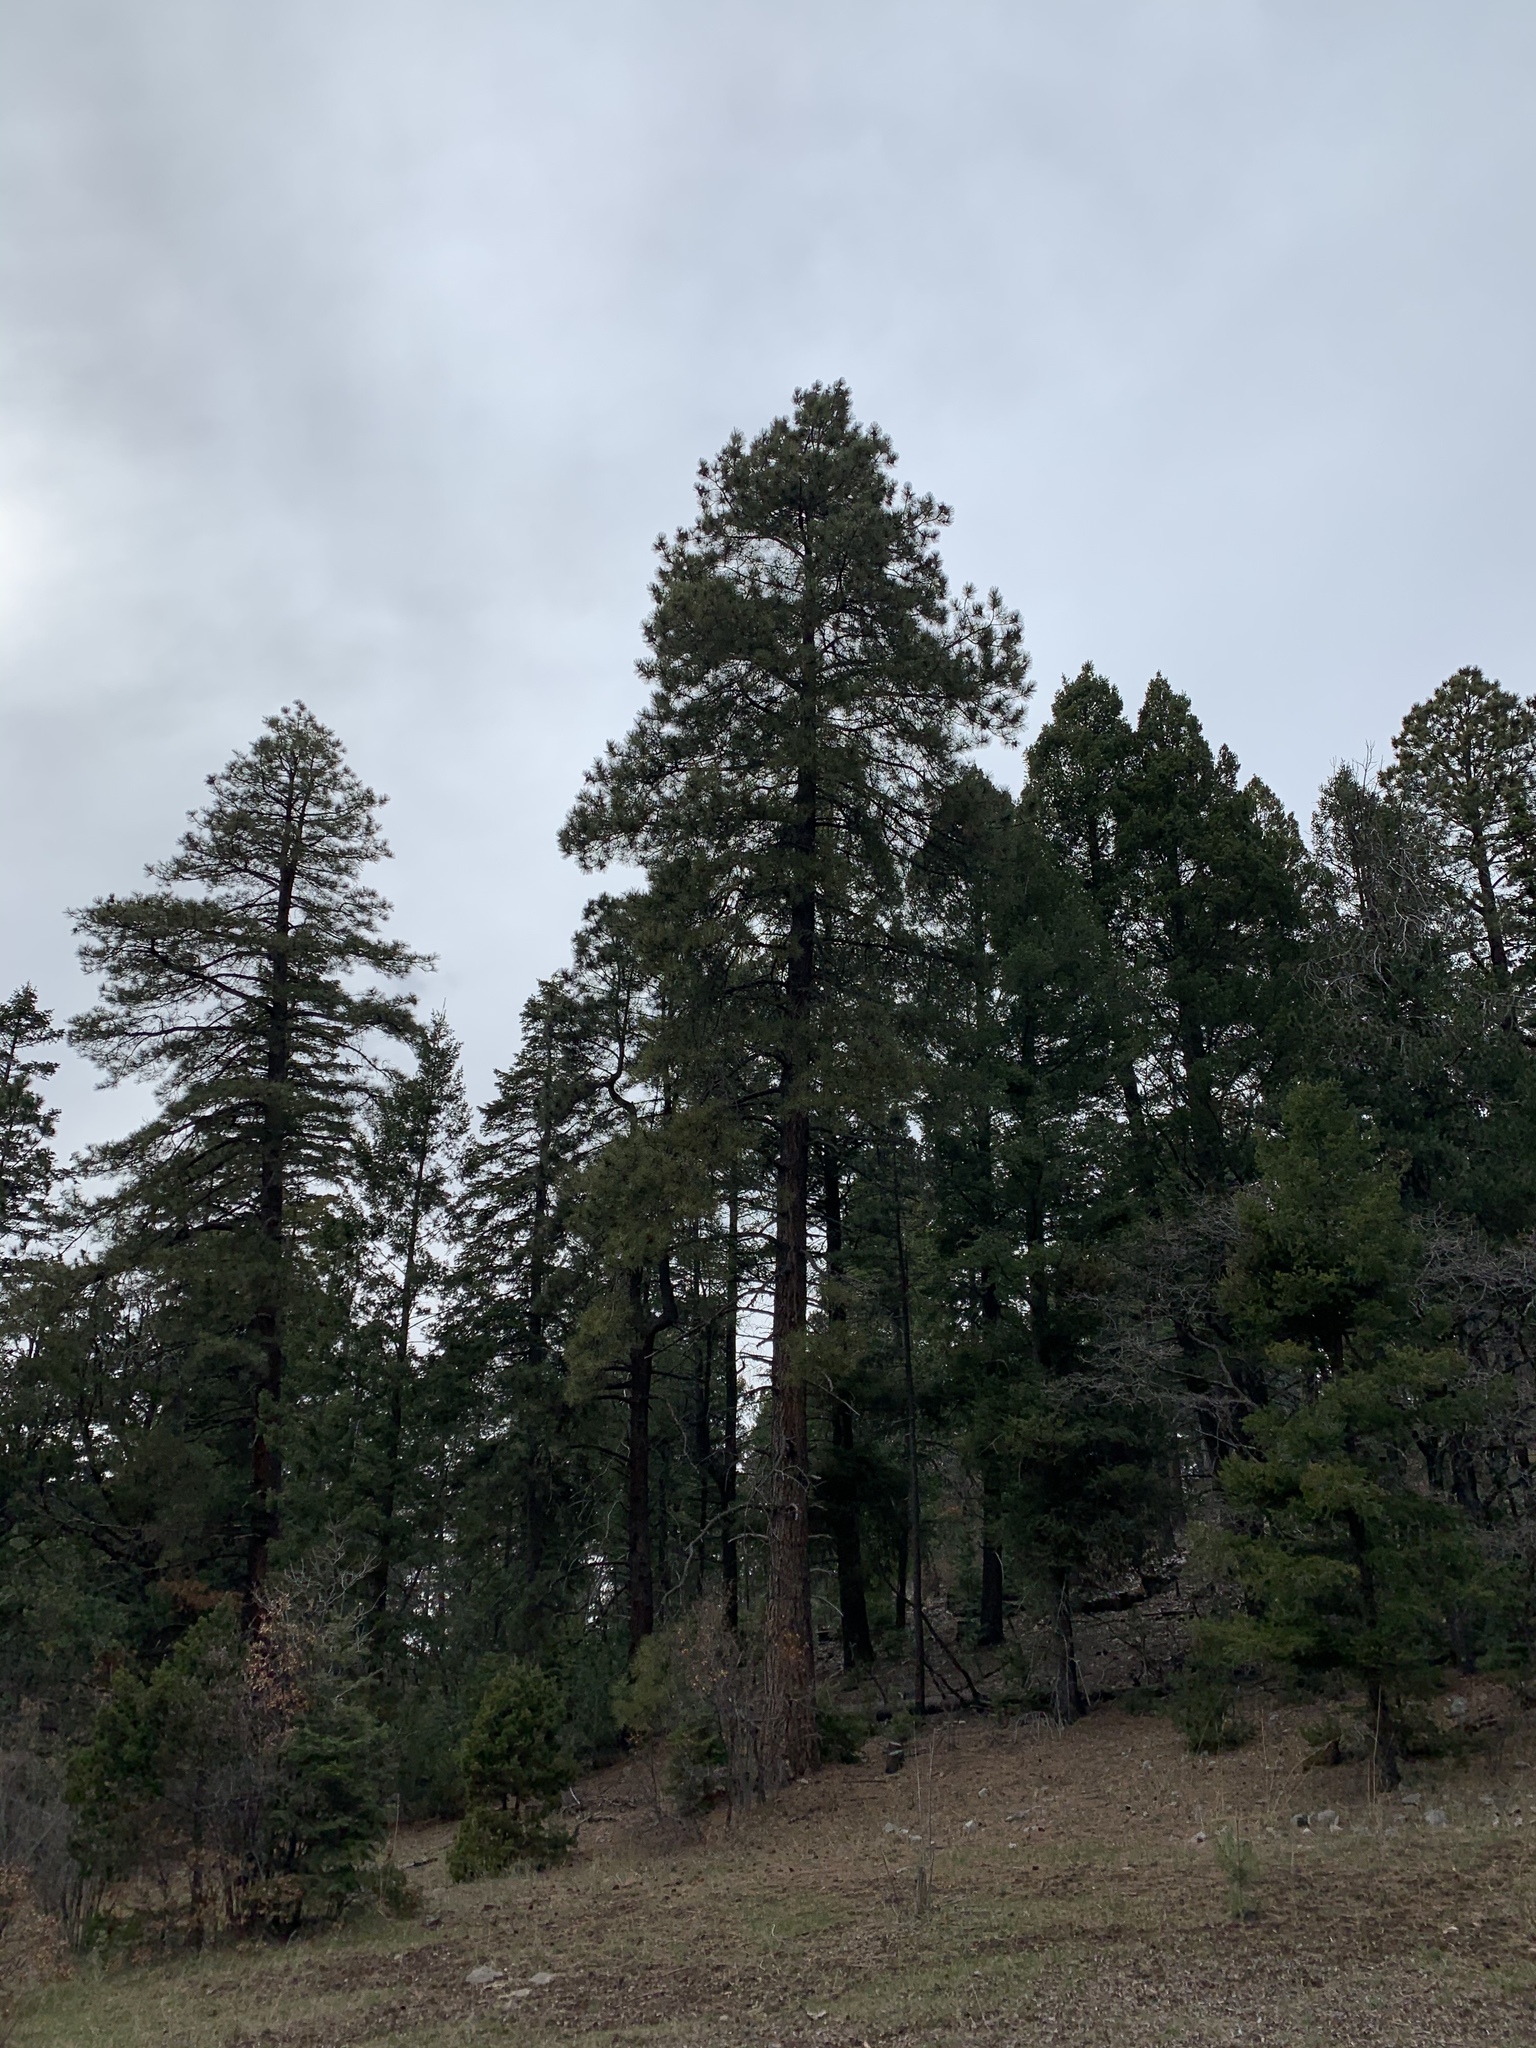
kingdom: Plantae
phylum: Tracheophyta
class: Pinopsida
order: Pinales
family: Pinaceae
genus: Pinus
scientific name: Pinus ponderosa
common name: Western yellow-pine
